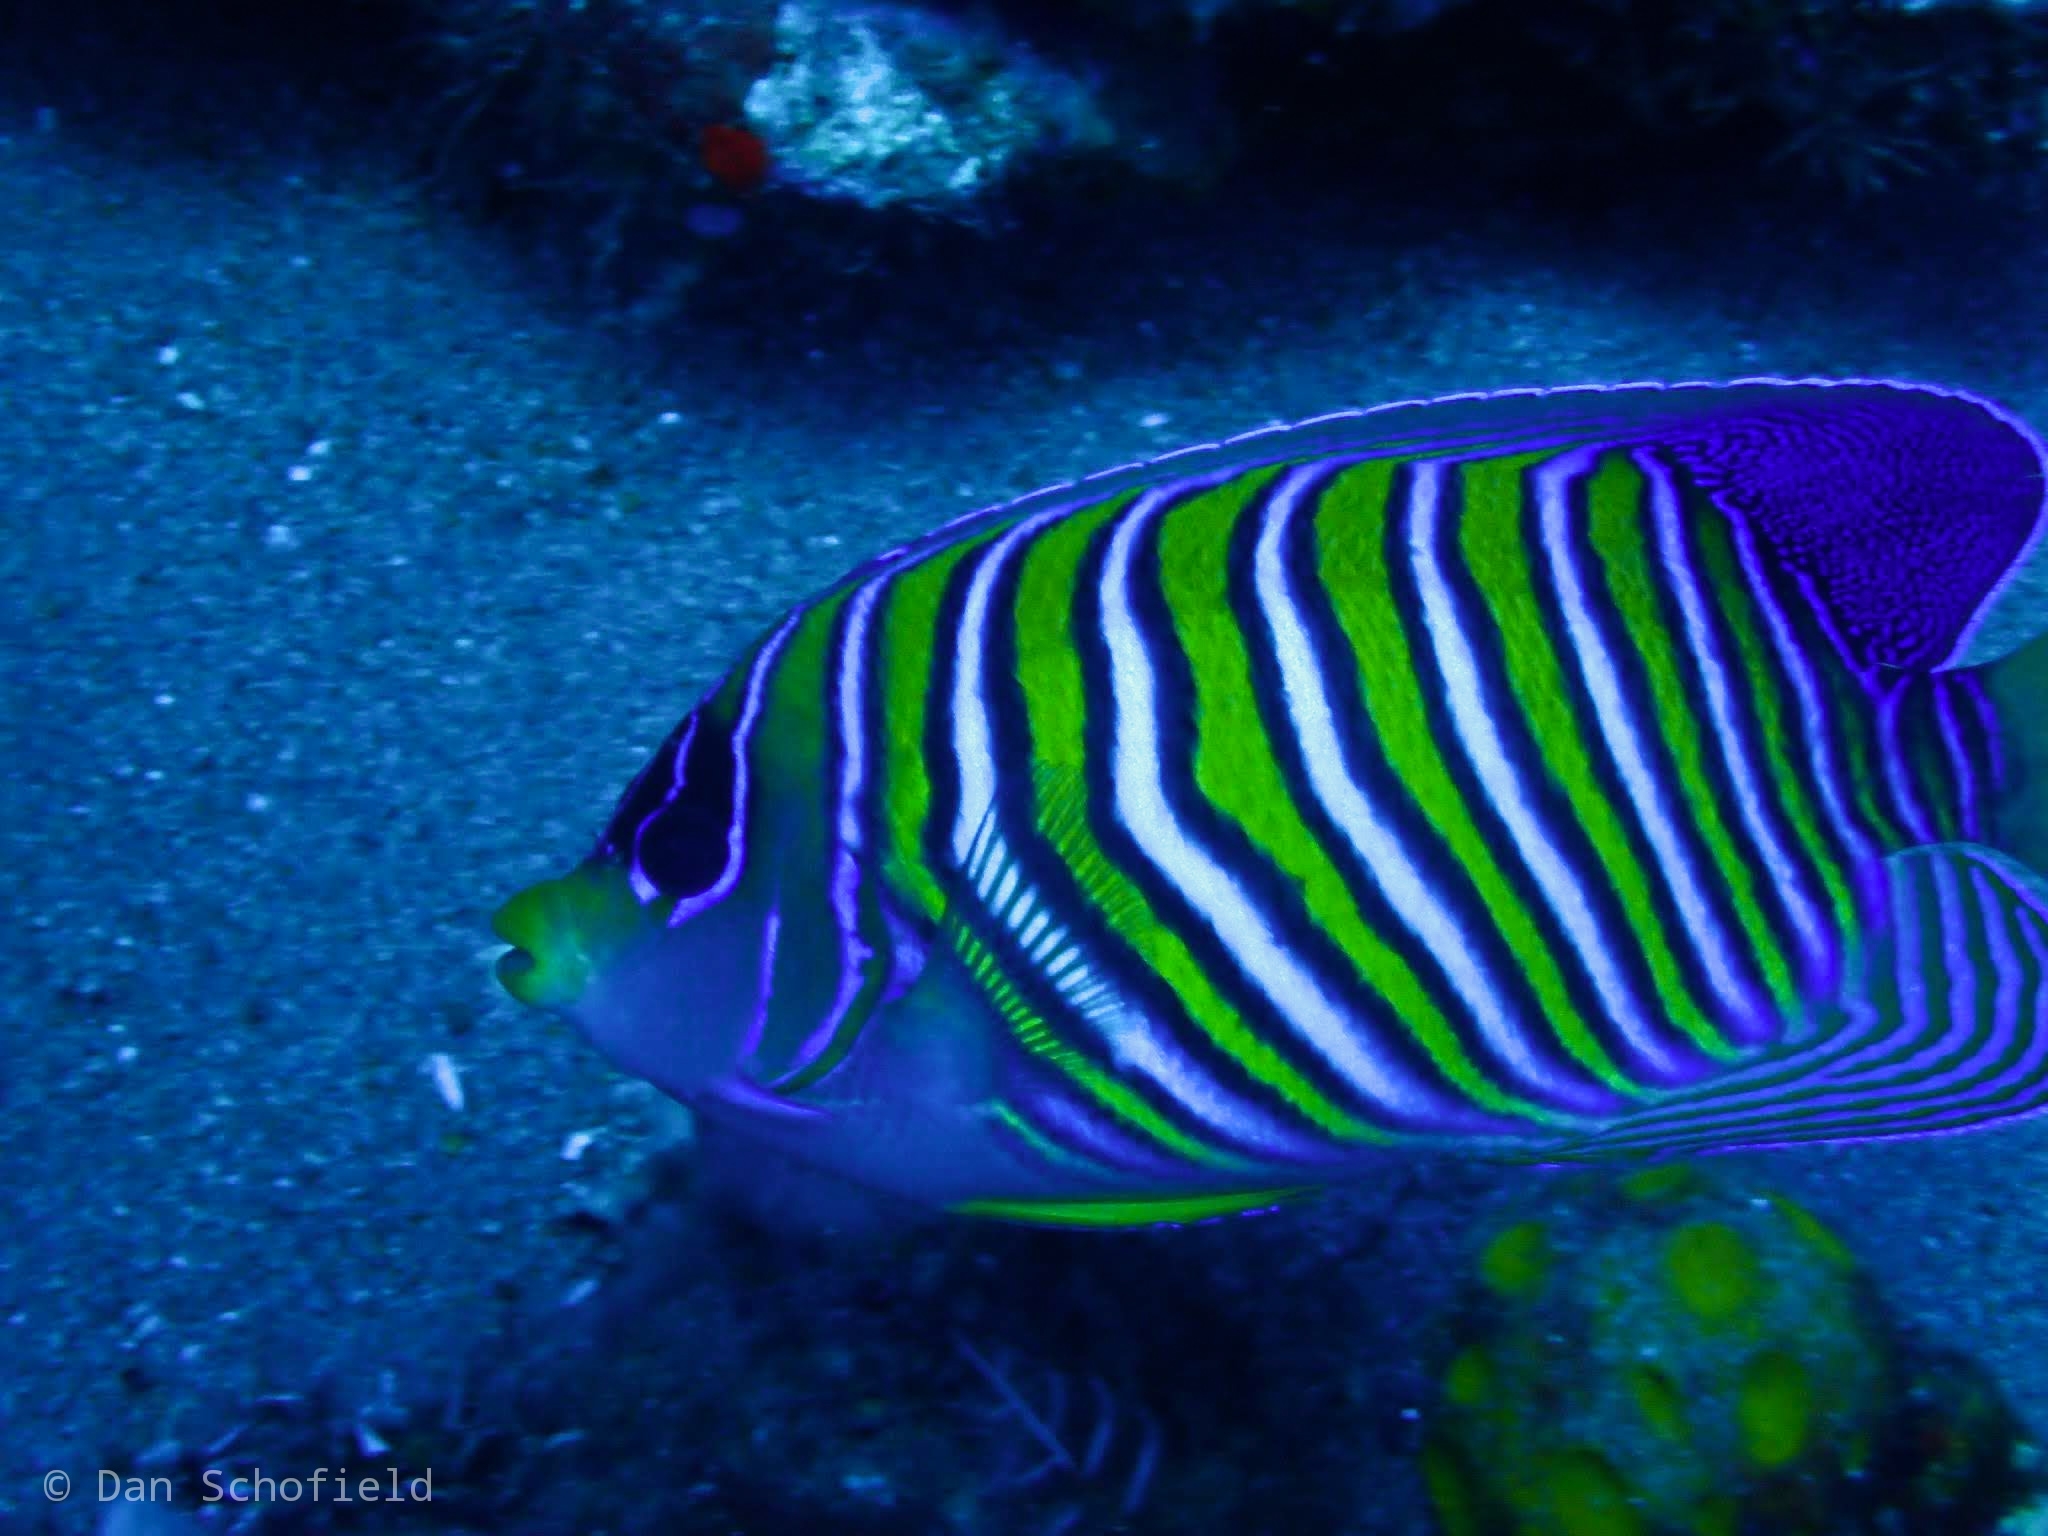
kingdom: Animalia
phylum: Chordata
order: Perciformes
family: Pomacanthidae
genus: Pygoplites
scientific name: Pygoplites diacanthus
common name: Regal angelfish
